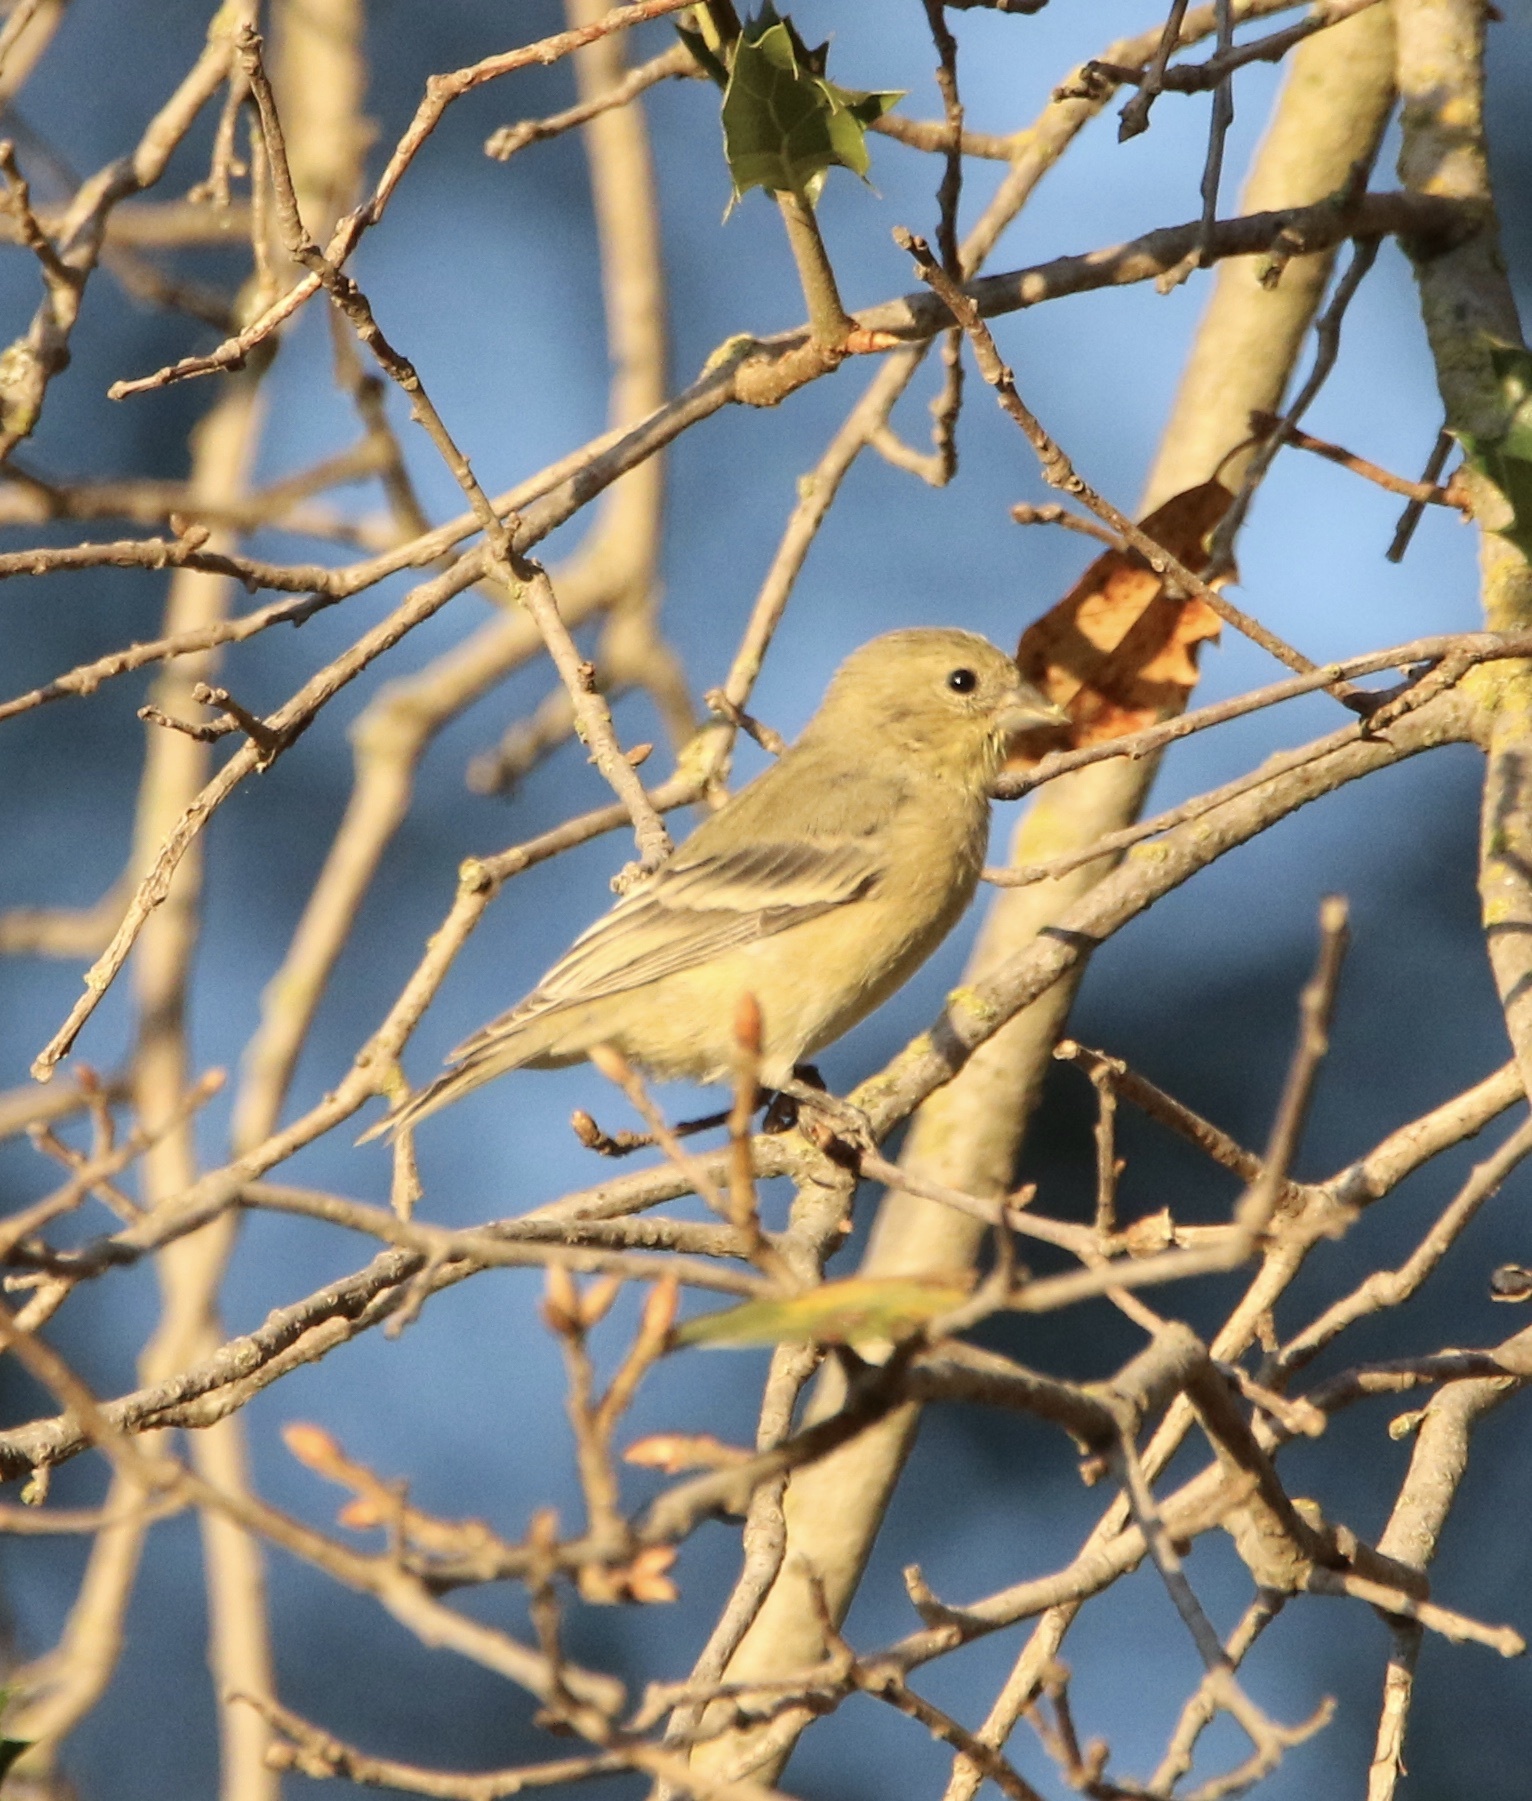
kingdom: Animalia
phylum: Chordata
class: Aves
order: Passeriformes
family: Fringillidae
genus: Spinus
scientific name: Spinus psaltria
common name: Lesser goldfinch
